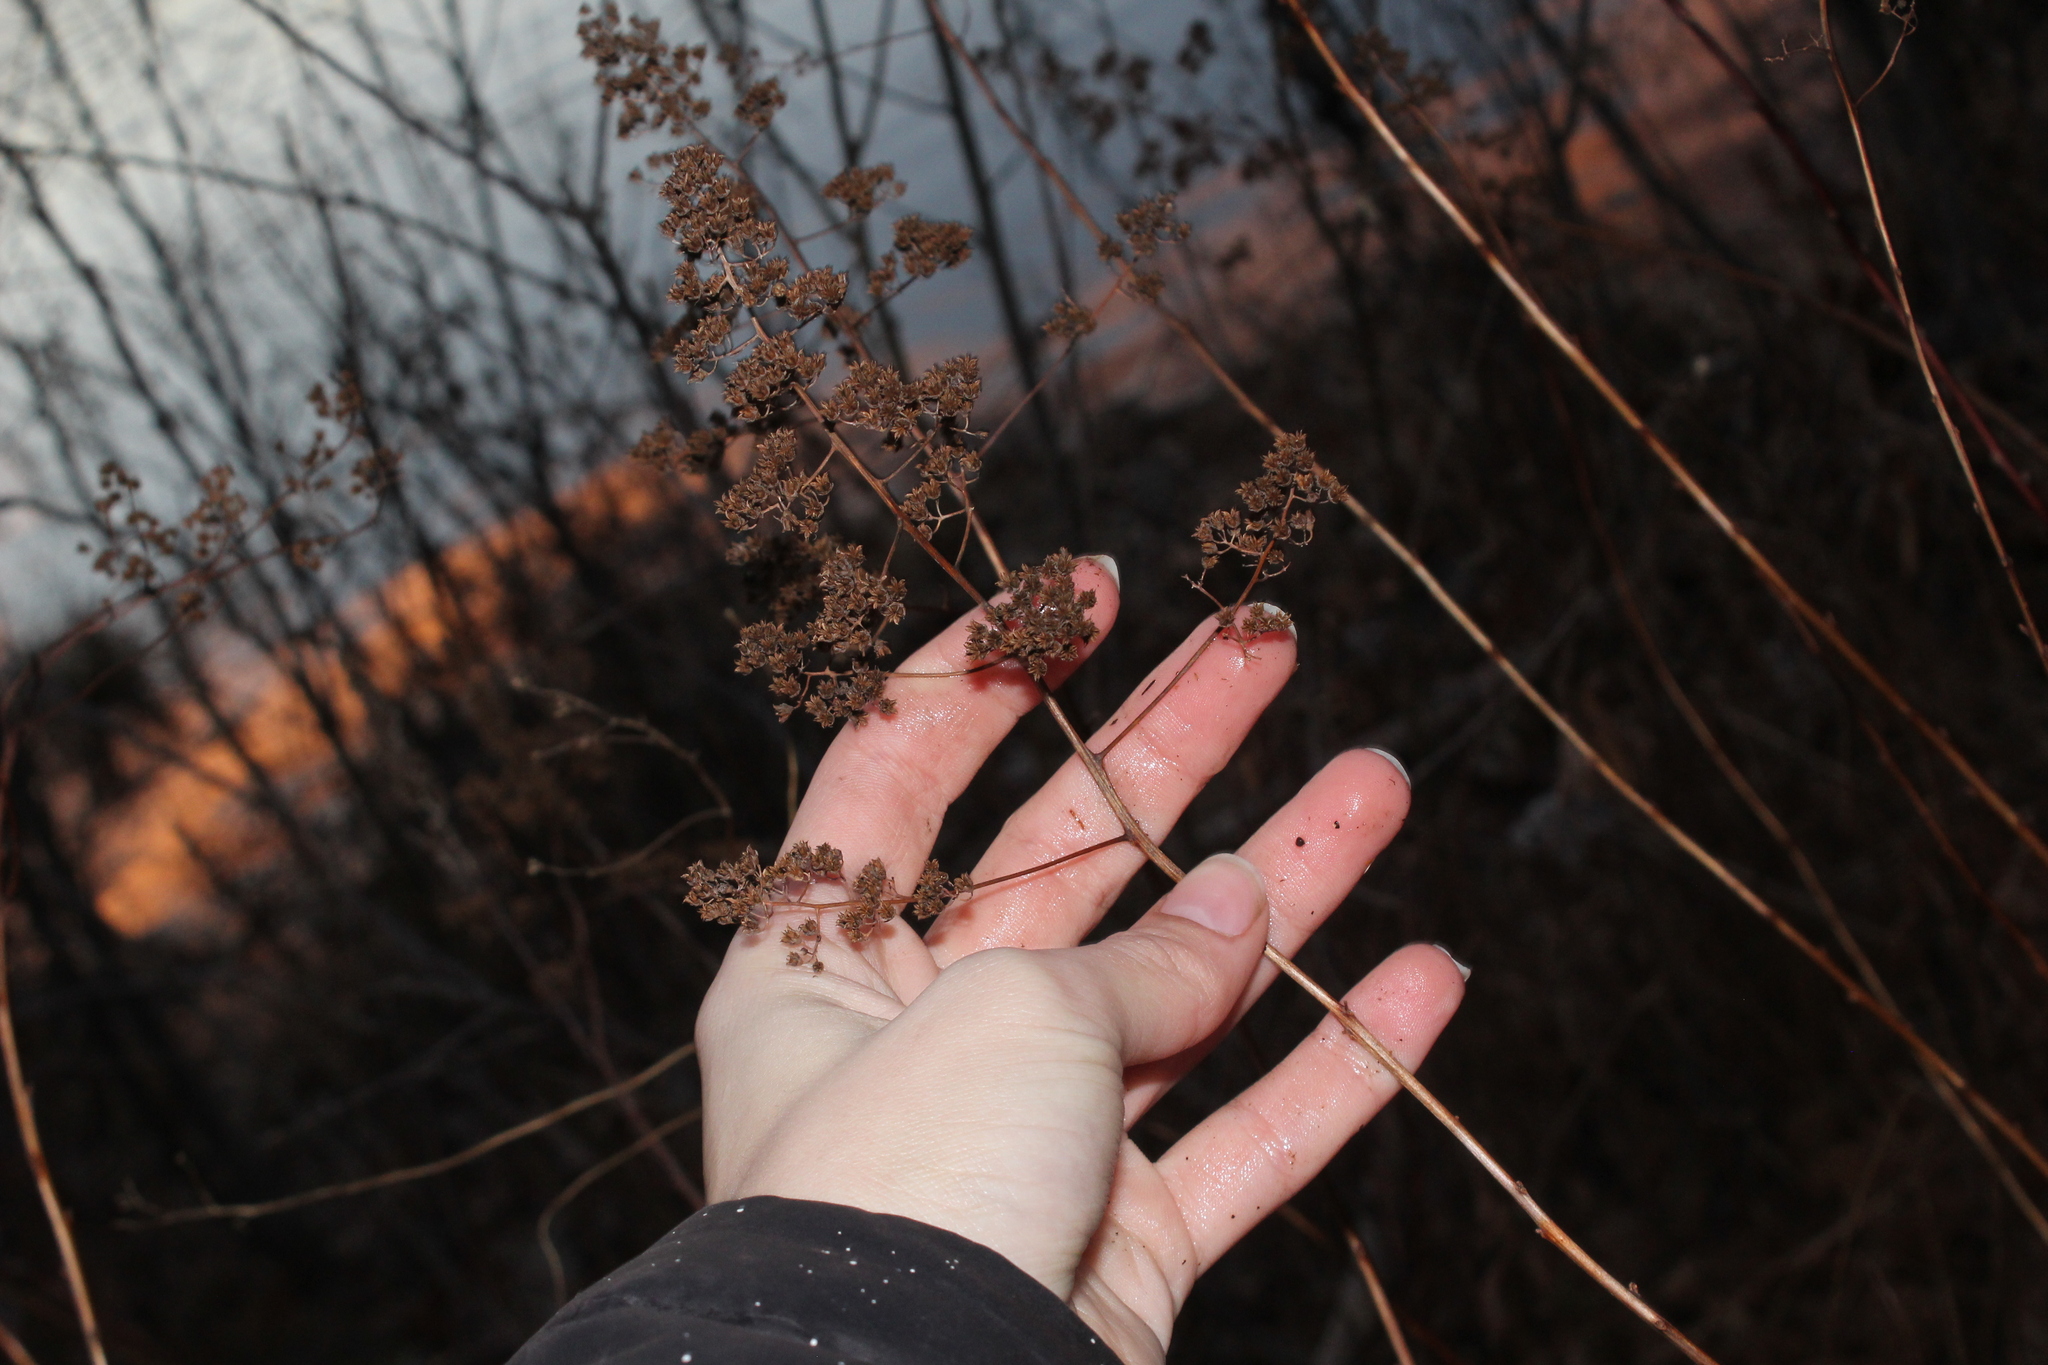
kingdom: Plantae
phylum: Tracheophyta
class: Magnoliopsida
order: Rosales
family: Rosaceae
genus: Spiraea
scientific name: Spiraea alba
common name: Pale bridewort
